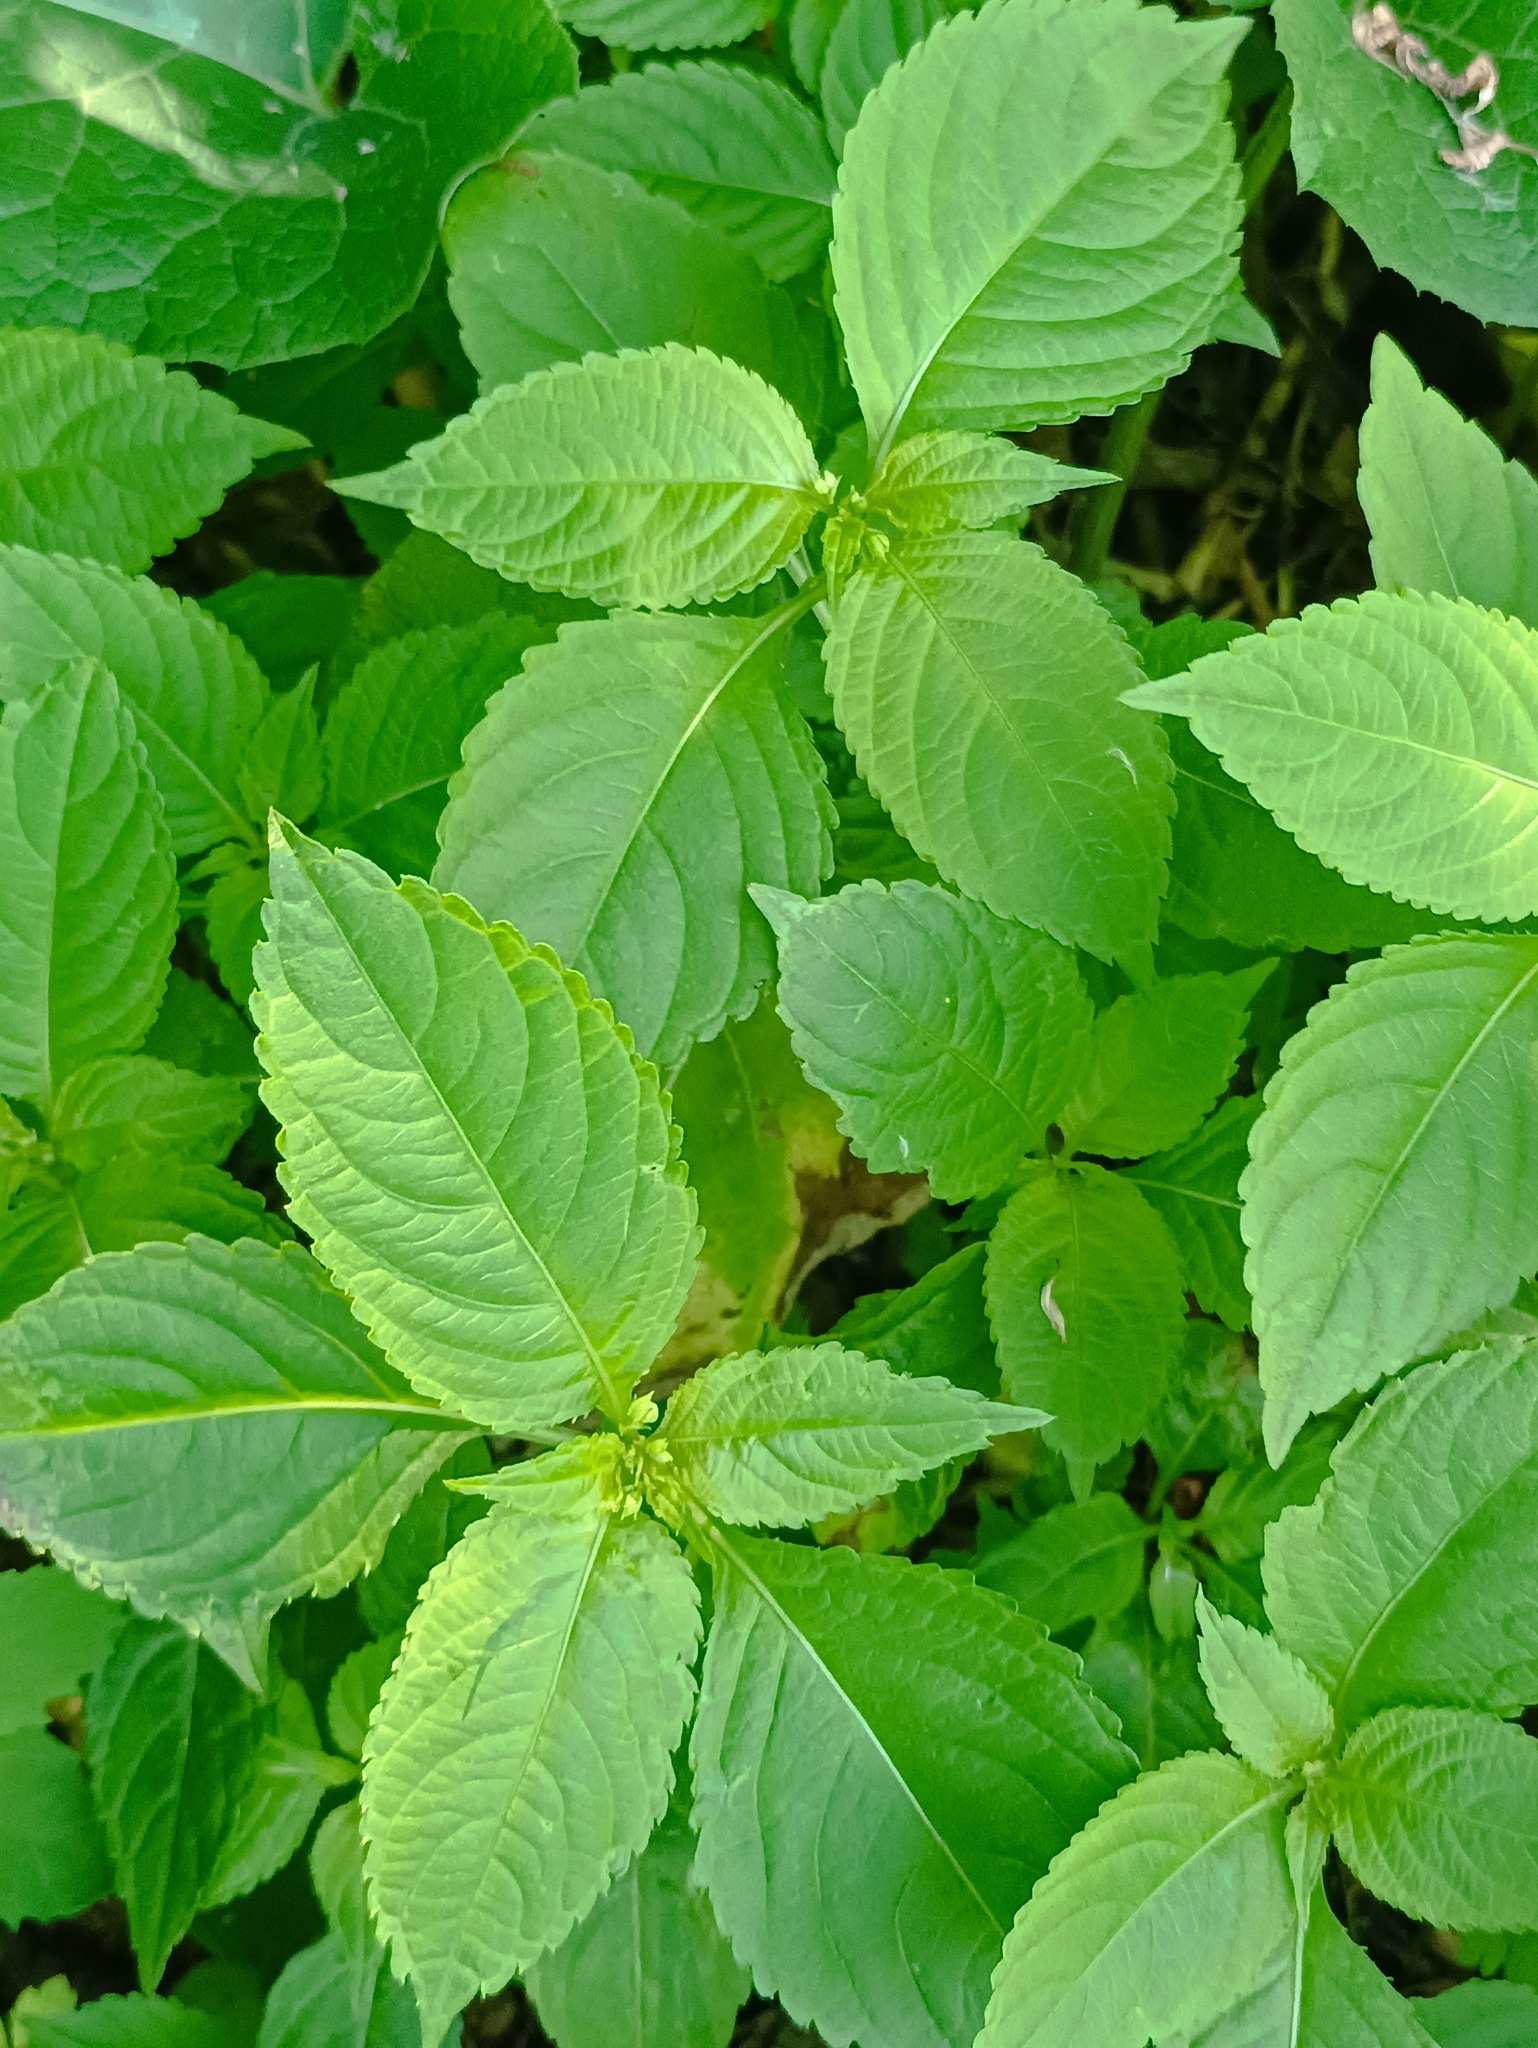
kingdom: Plantae
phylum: Tracheophyta
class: Magnoliopsida
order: Ericales
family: Balsaminaceae
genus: Impatiens
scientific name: Impatiens parviflora
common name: Small balsam
